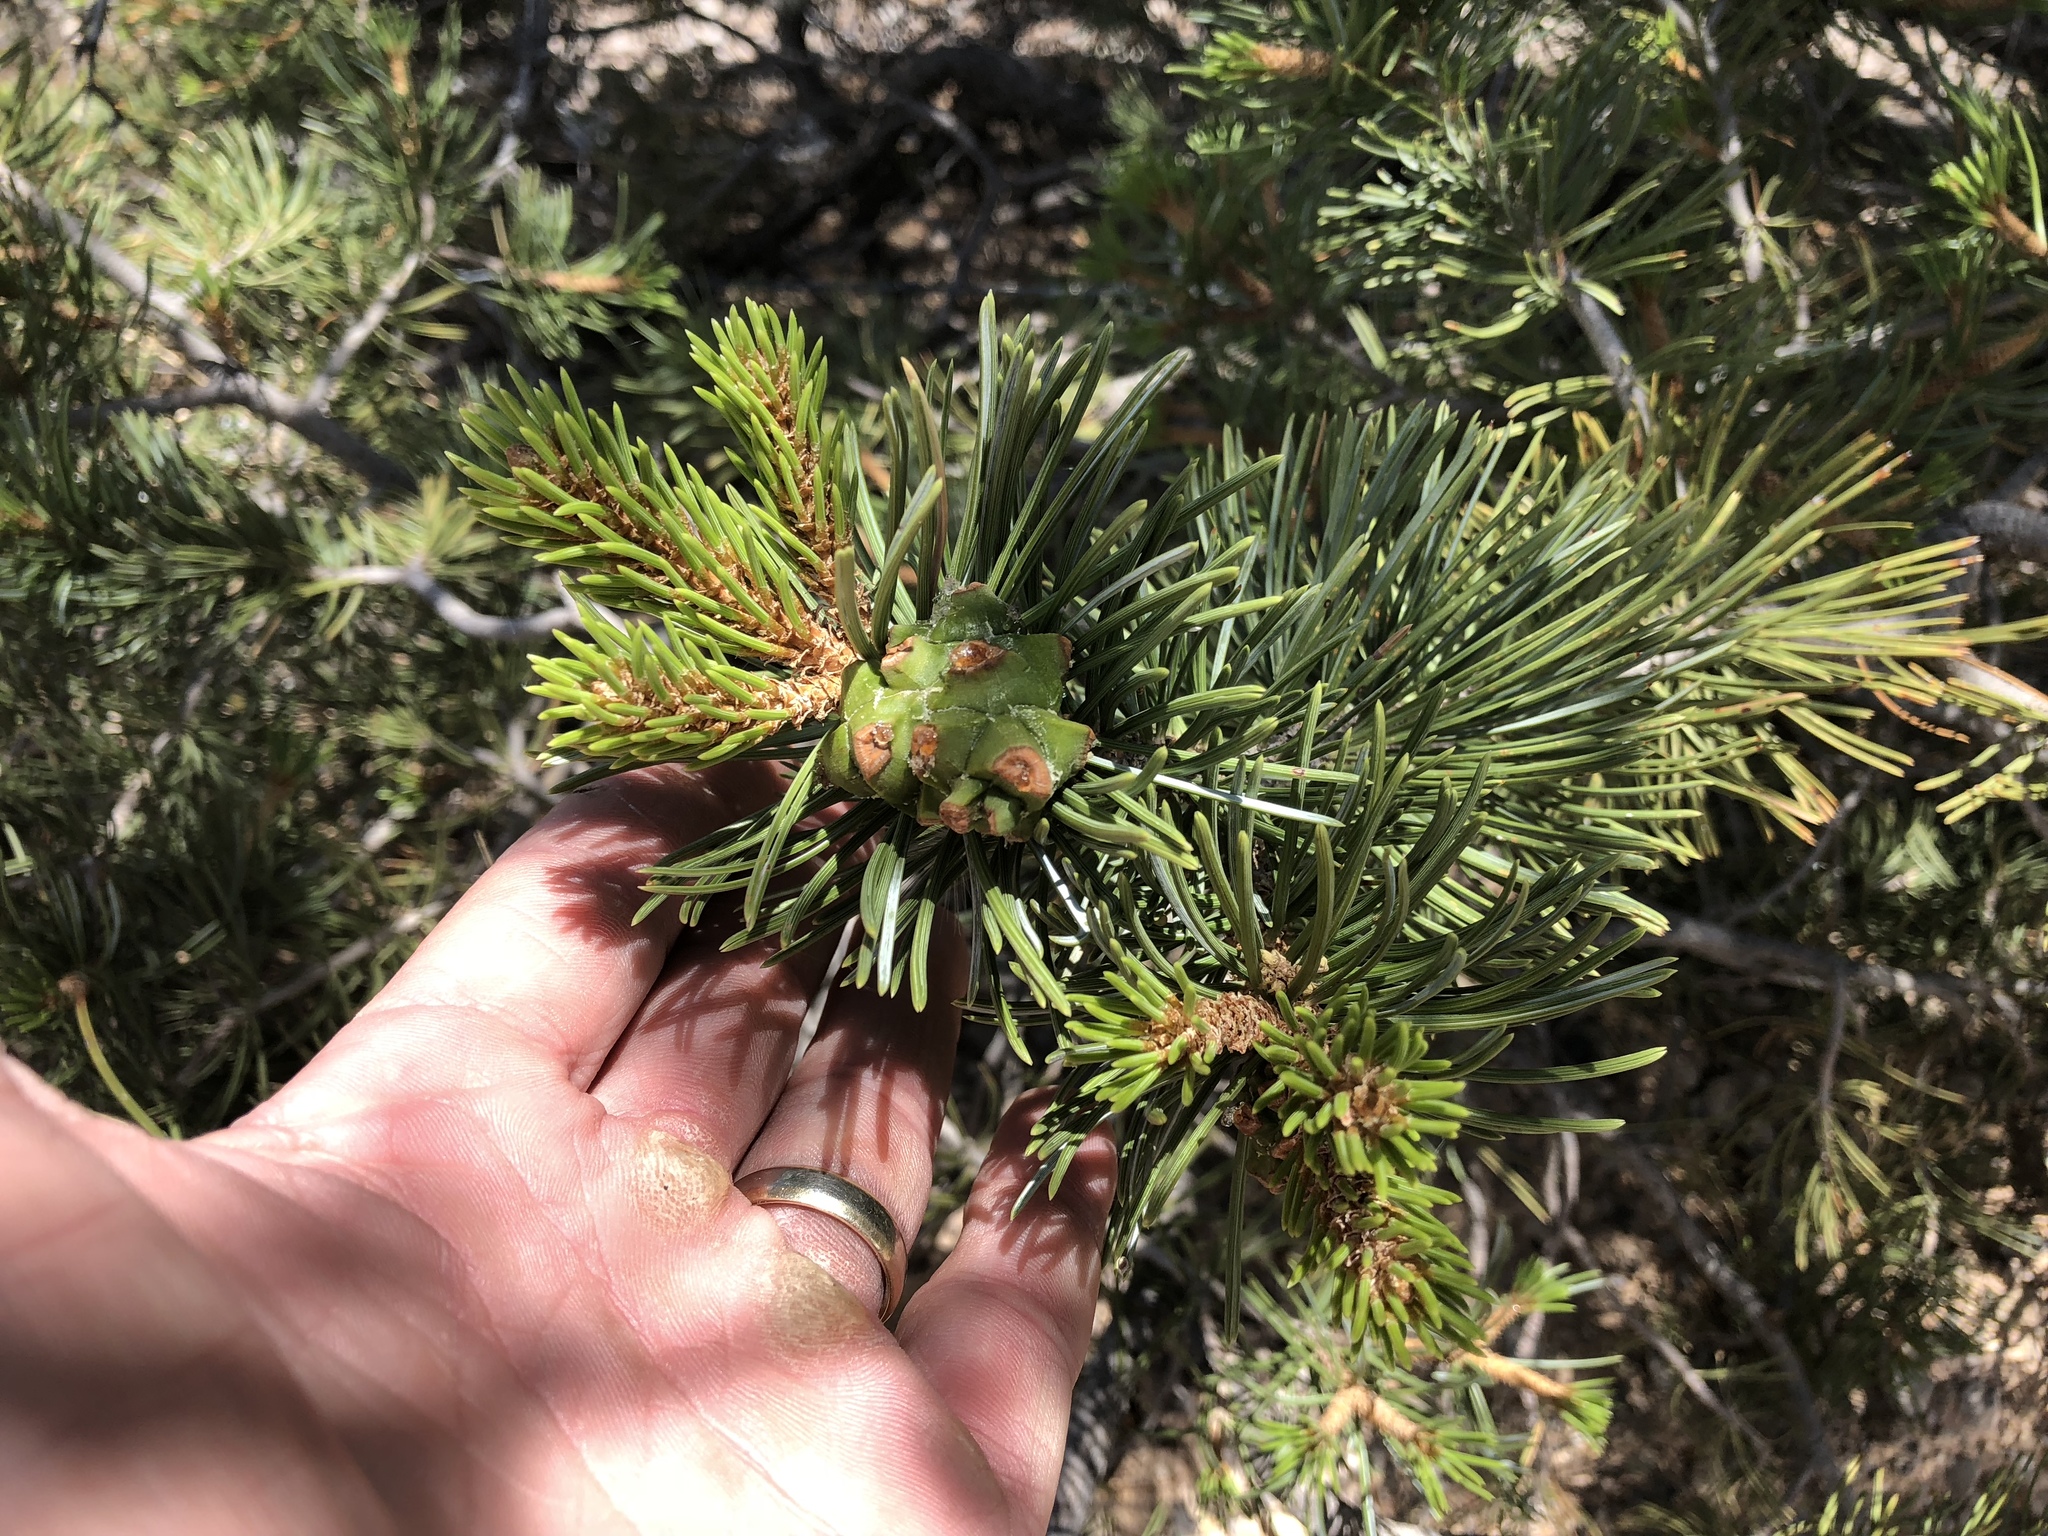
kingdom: Plantae
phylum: Tracheophyta
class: Pinopsida
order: Pinales
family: Pinaceae
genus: Pinus
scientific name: Pinus edulis
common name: Colorado pinyon
